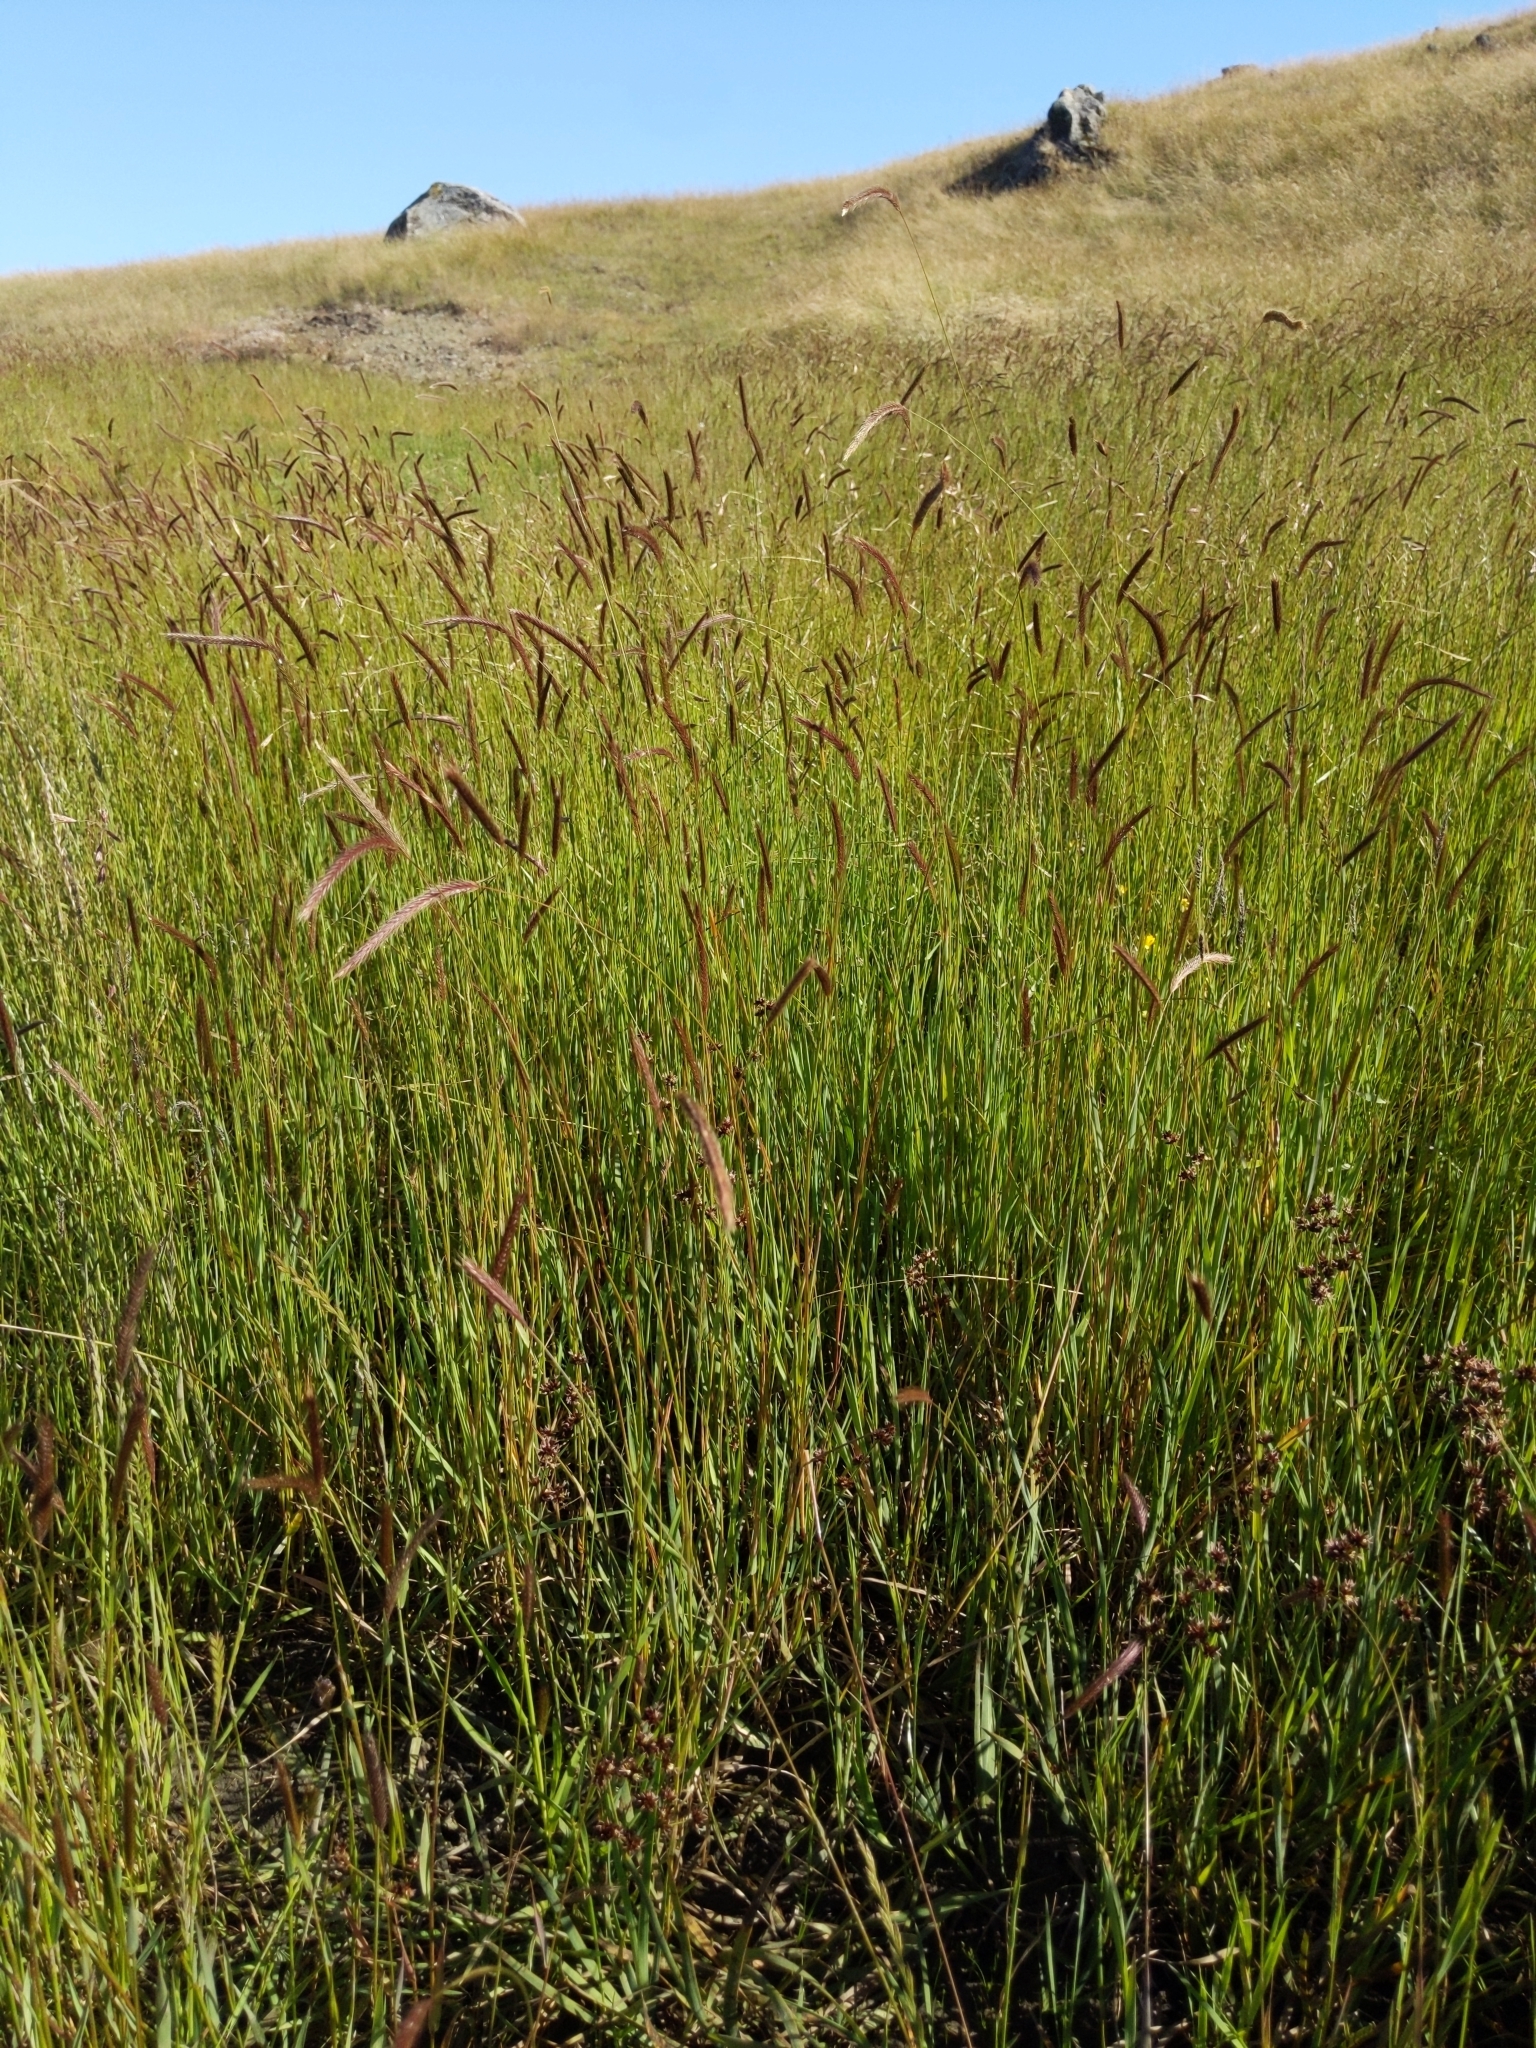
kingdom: Plantae
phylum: Tracheophyta
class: Liliopsida
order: Poales
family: Poaceae
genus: Hordeum
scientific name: Hordeum brachyantherum
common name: Meadow barley
